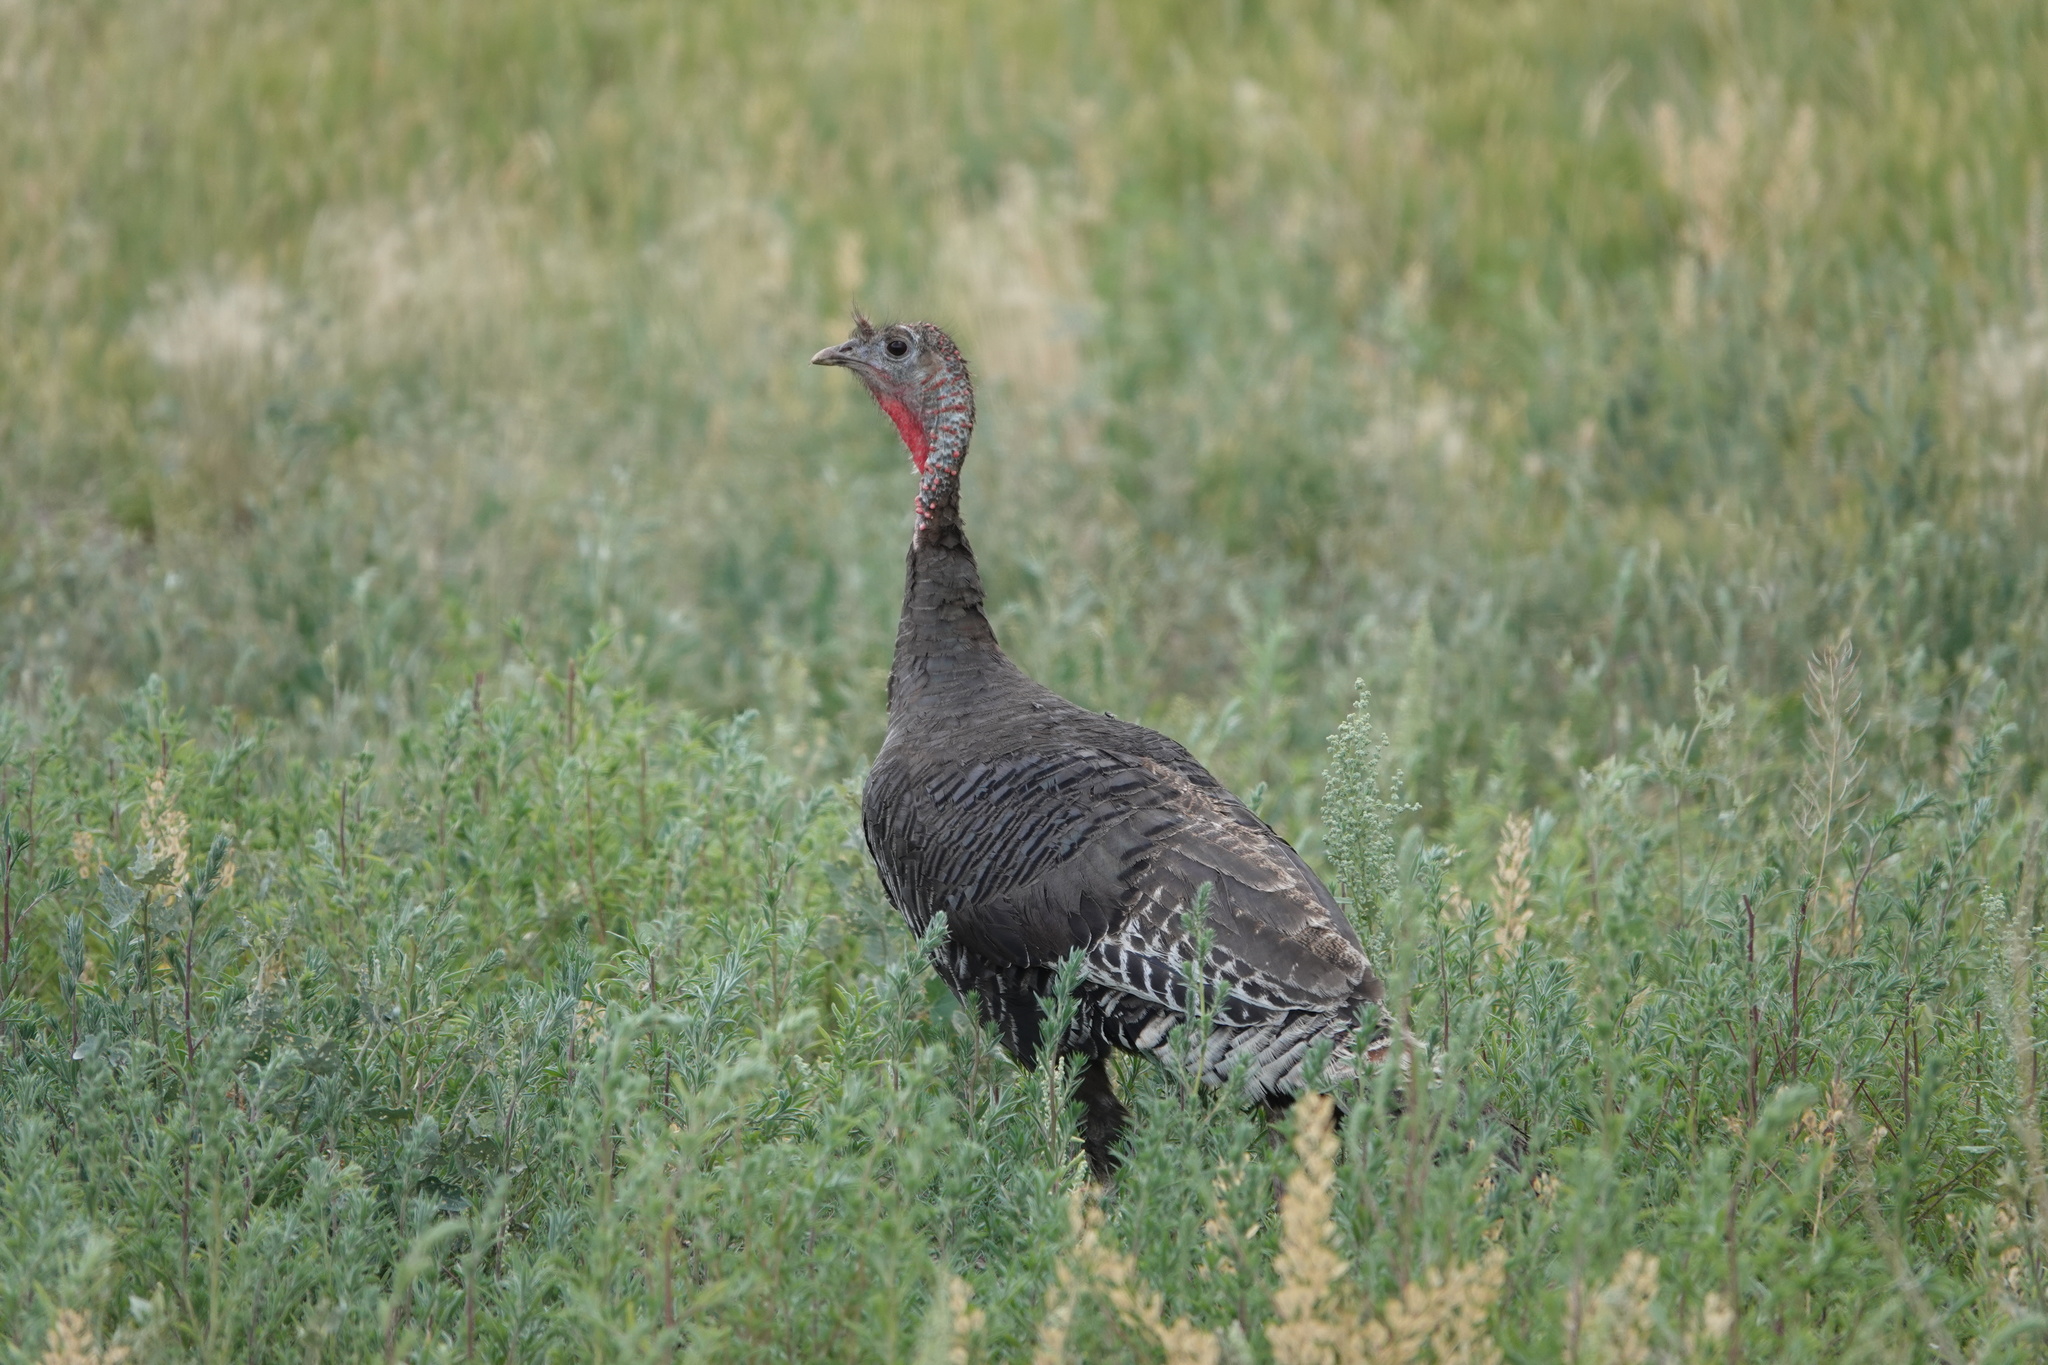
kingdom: Animalia
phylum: Chordata
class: Aves
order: Galliformes
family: Phasianidae
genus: Meleagris
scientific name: Meleagris gallopavo
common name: Wild turkey
